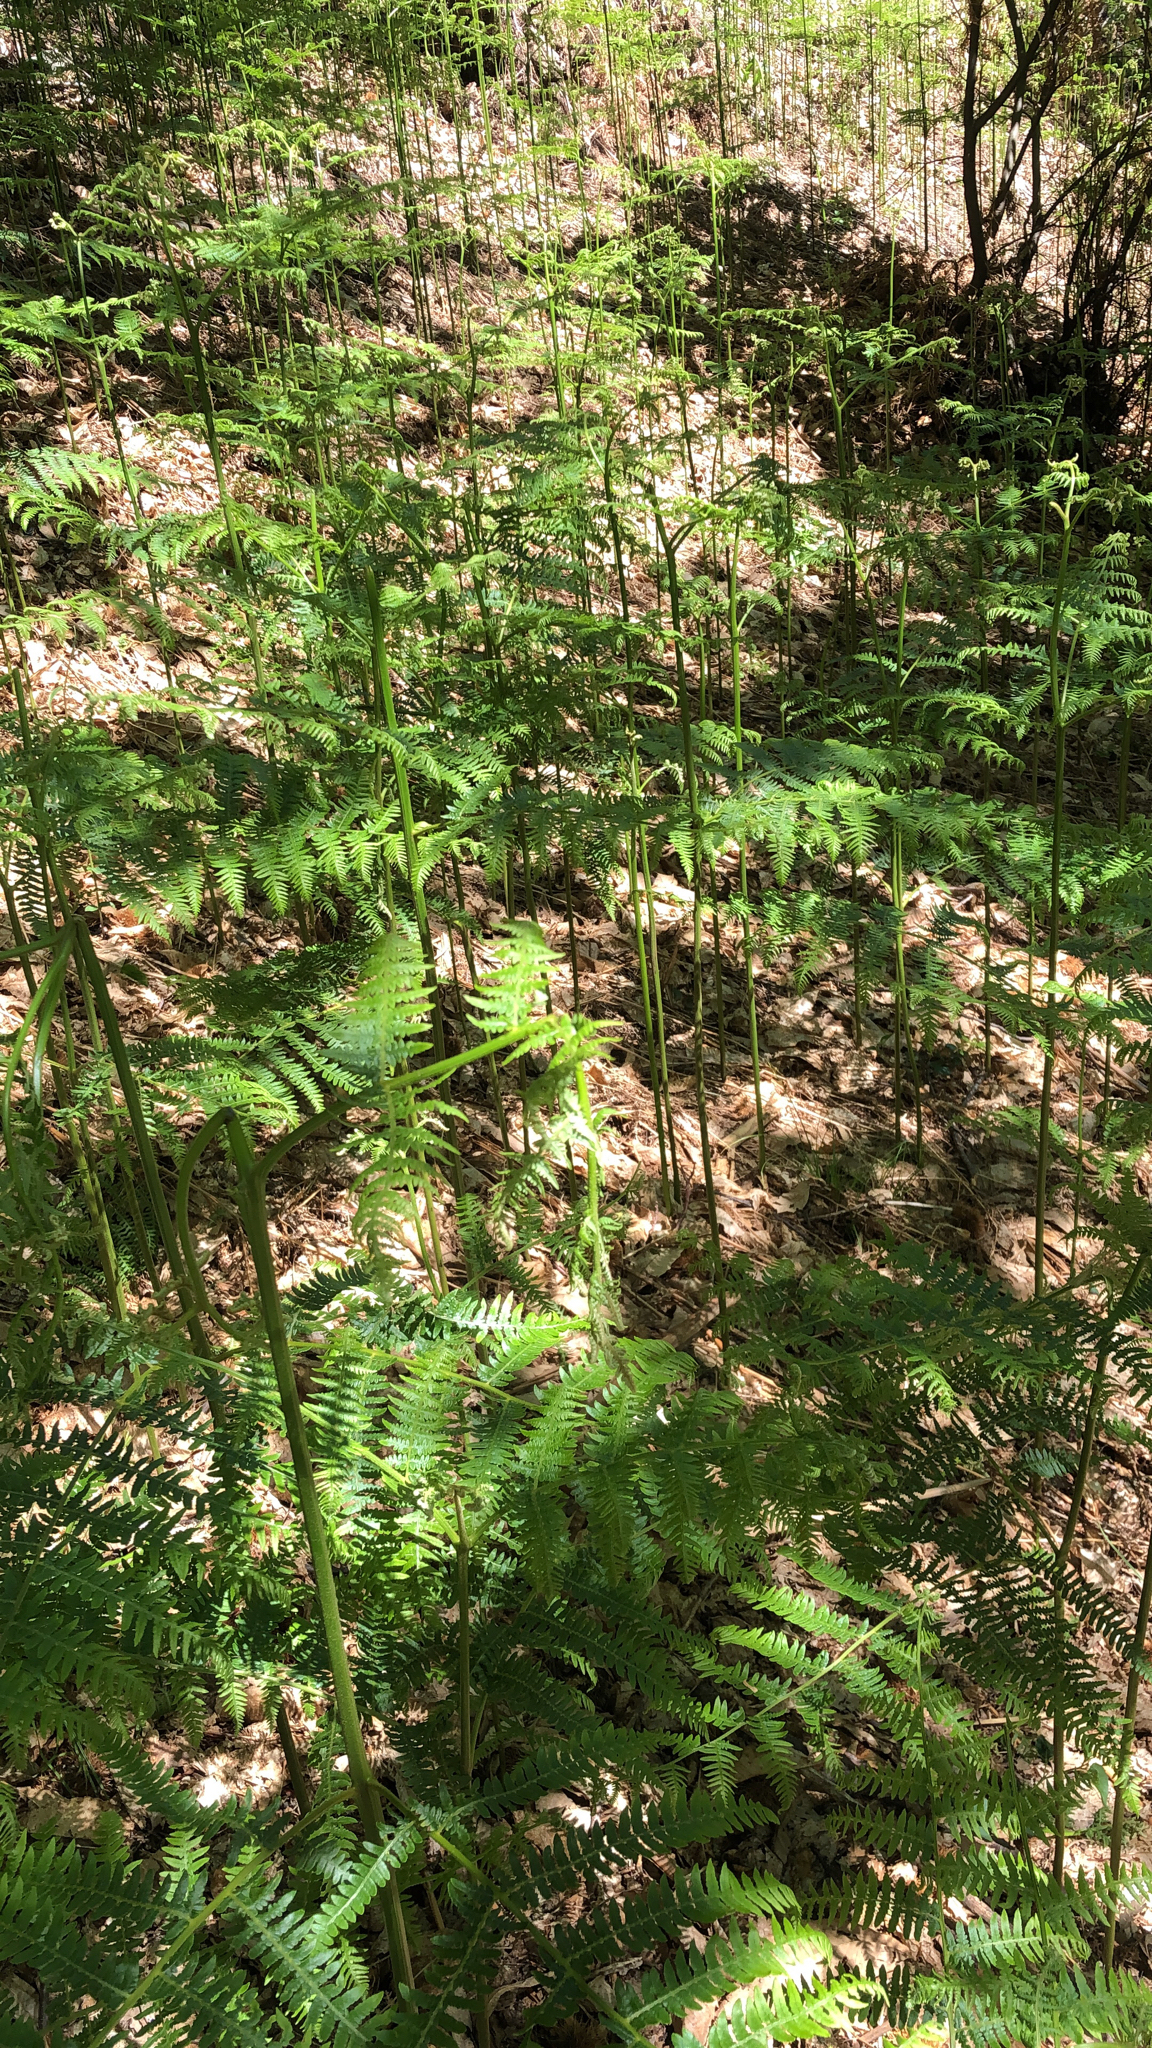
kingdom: Plantae
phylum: Tracheophyta
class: Polypodiopsida
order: Polypodiales
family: Dennstaedtiaceae
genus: Pteridium
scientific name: Pteridium aquilinum
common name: Bracken
